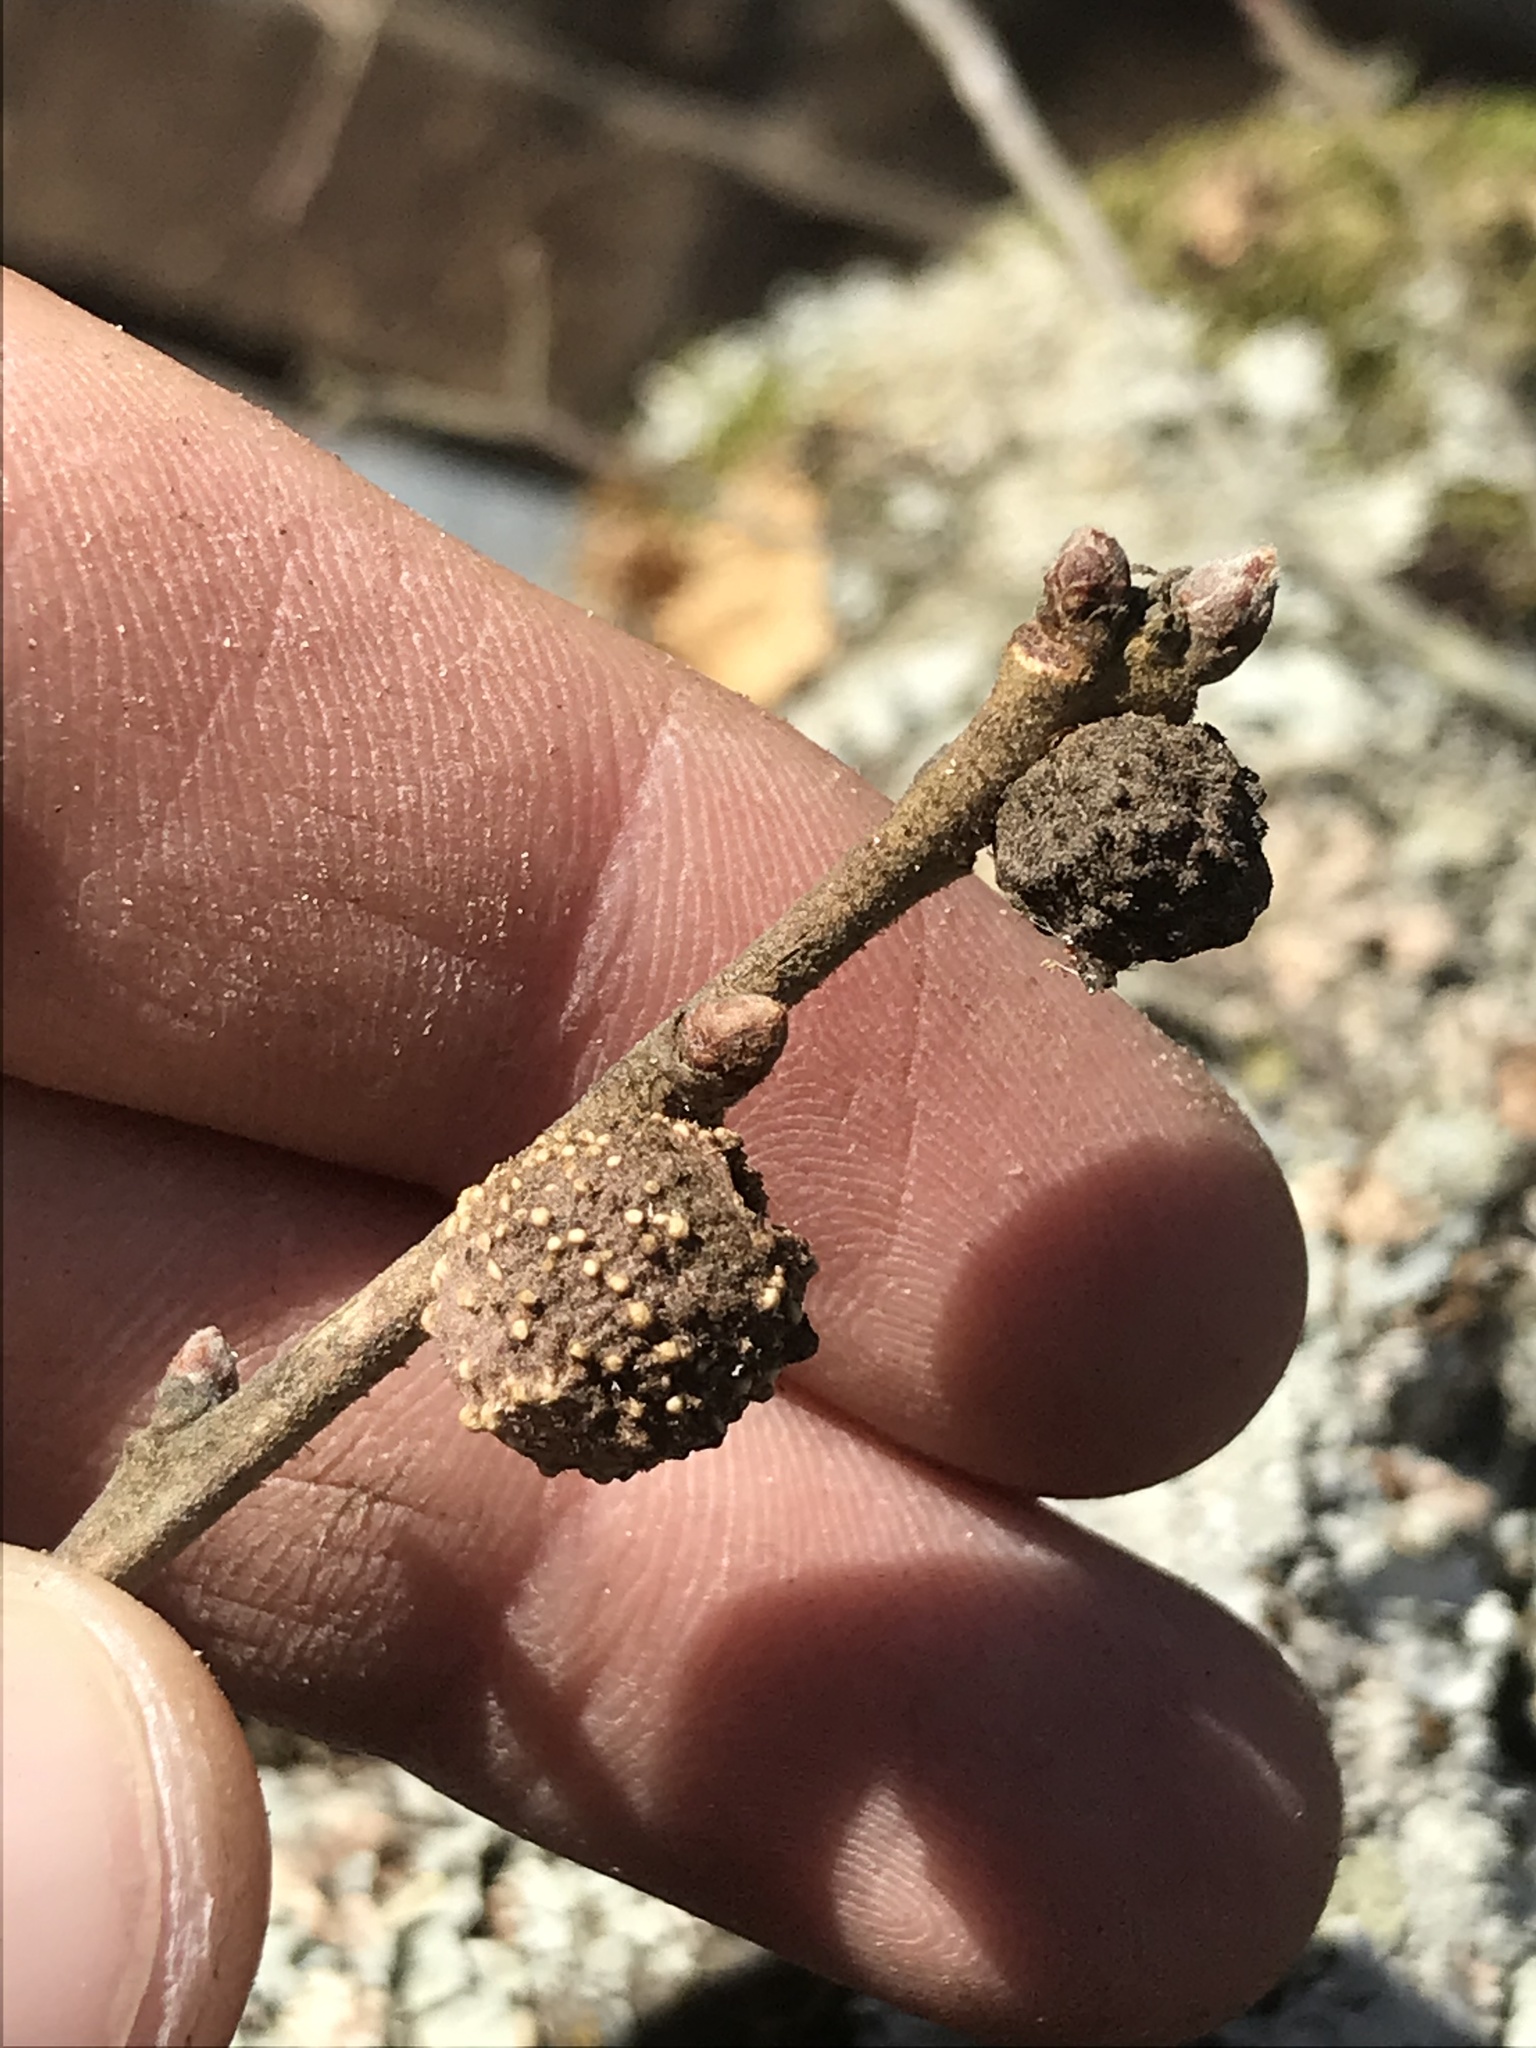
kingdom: Animalia
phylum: Arthropoda
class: Insecta
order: Hymenoptera
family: Cynipidae
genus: Disholcaspis
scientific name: Disholcaspis
